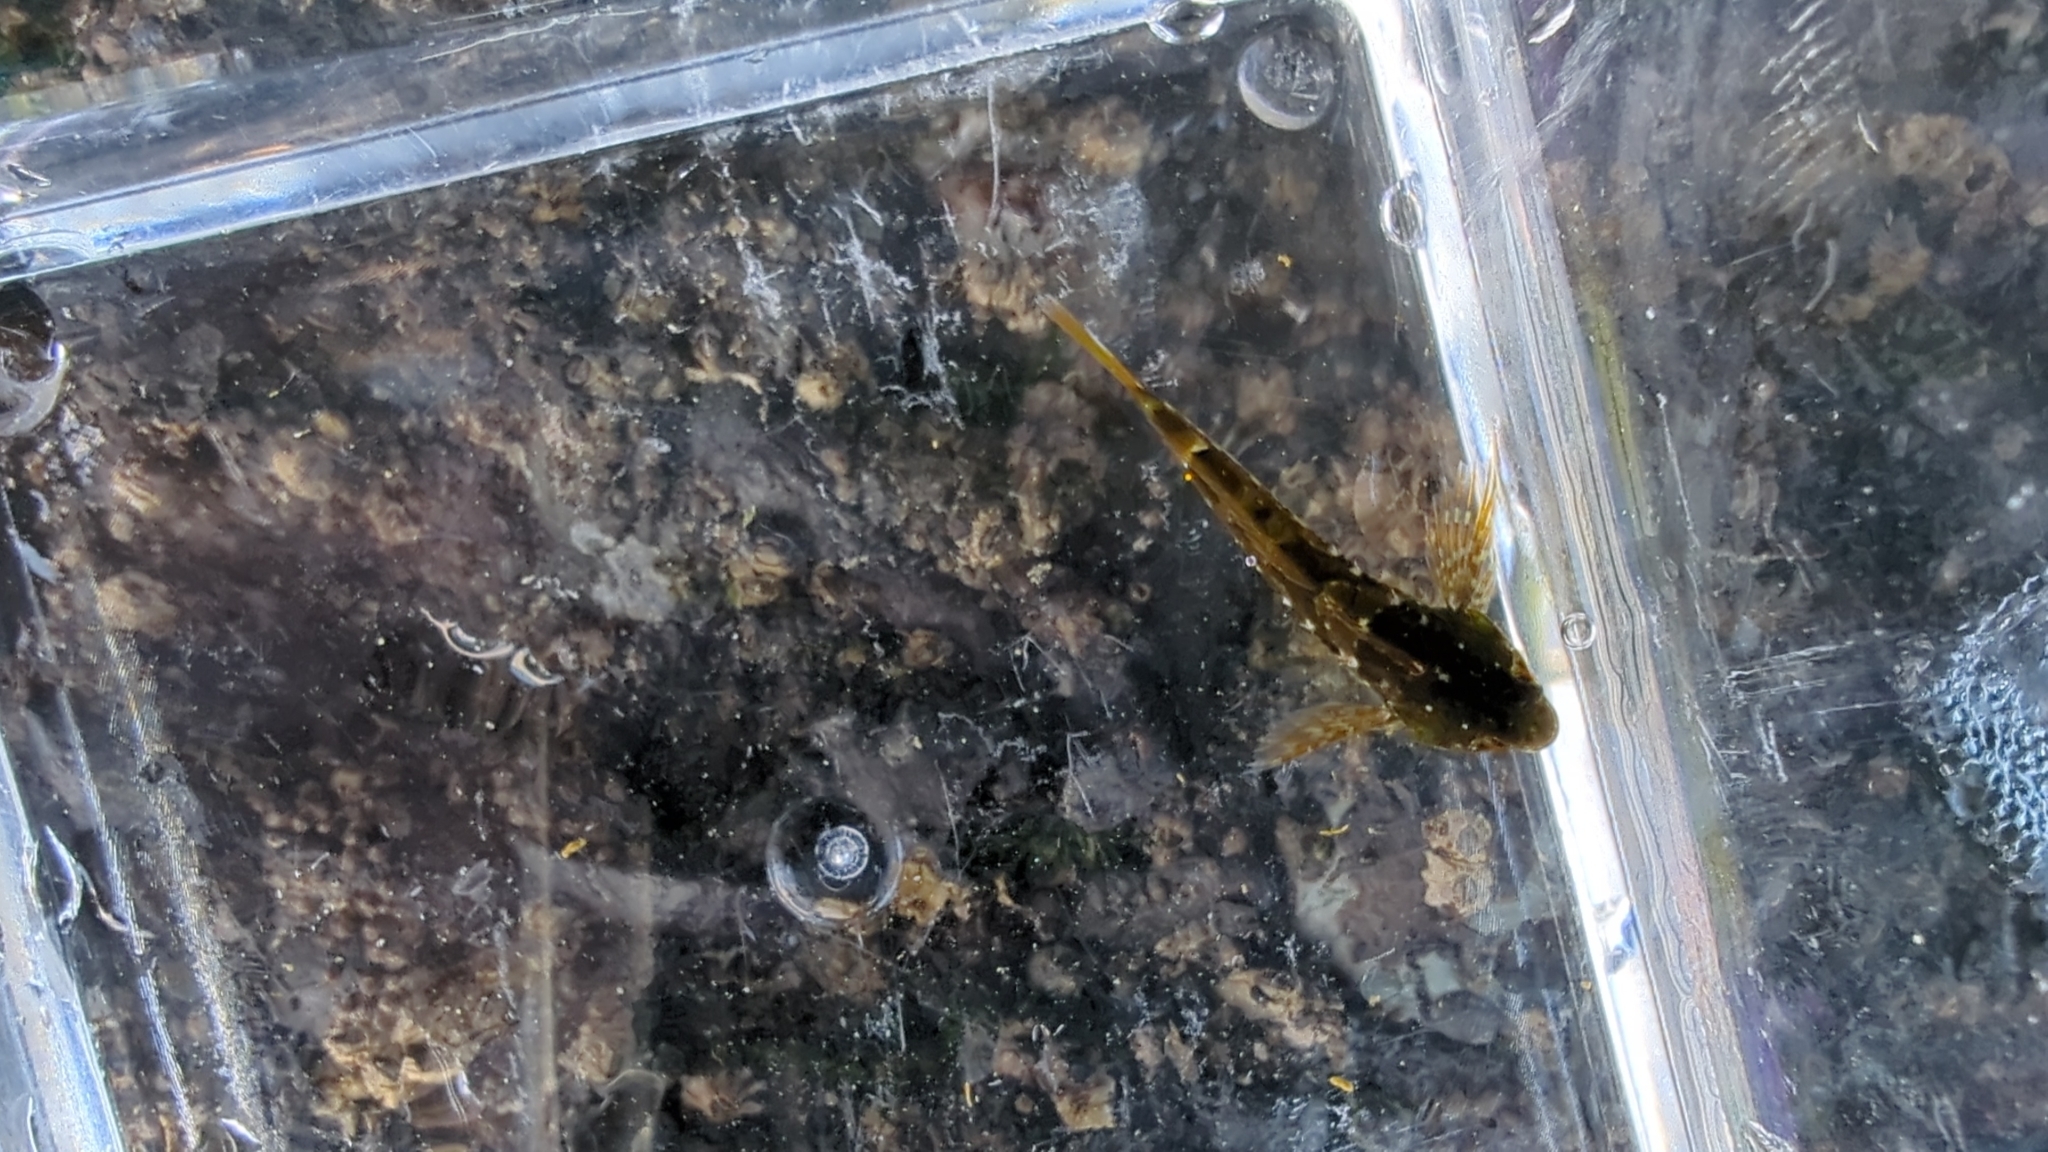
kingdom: Animalia
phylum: Chordata
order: Scorpaeniformes
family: Cottidae
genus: Oligocottus
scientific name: Oligocottus maculosus
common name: Tidepool sculpin
